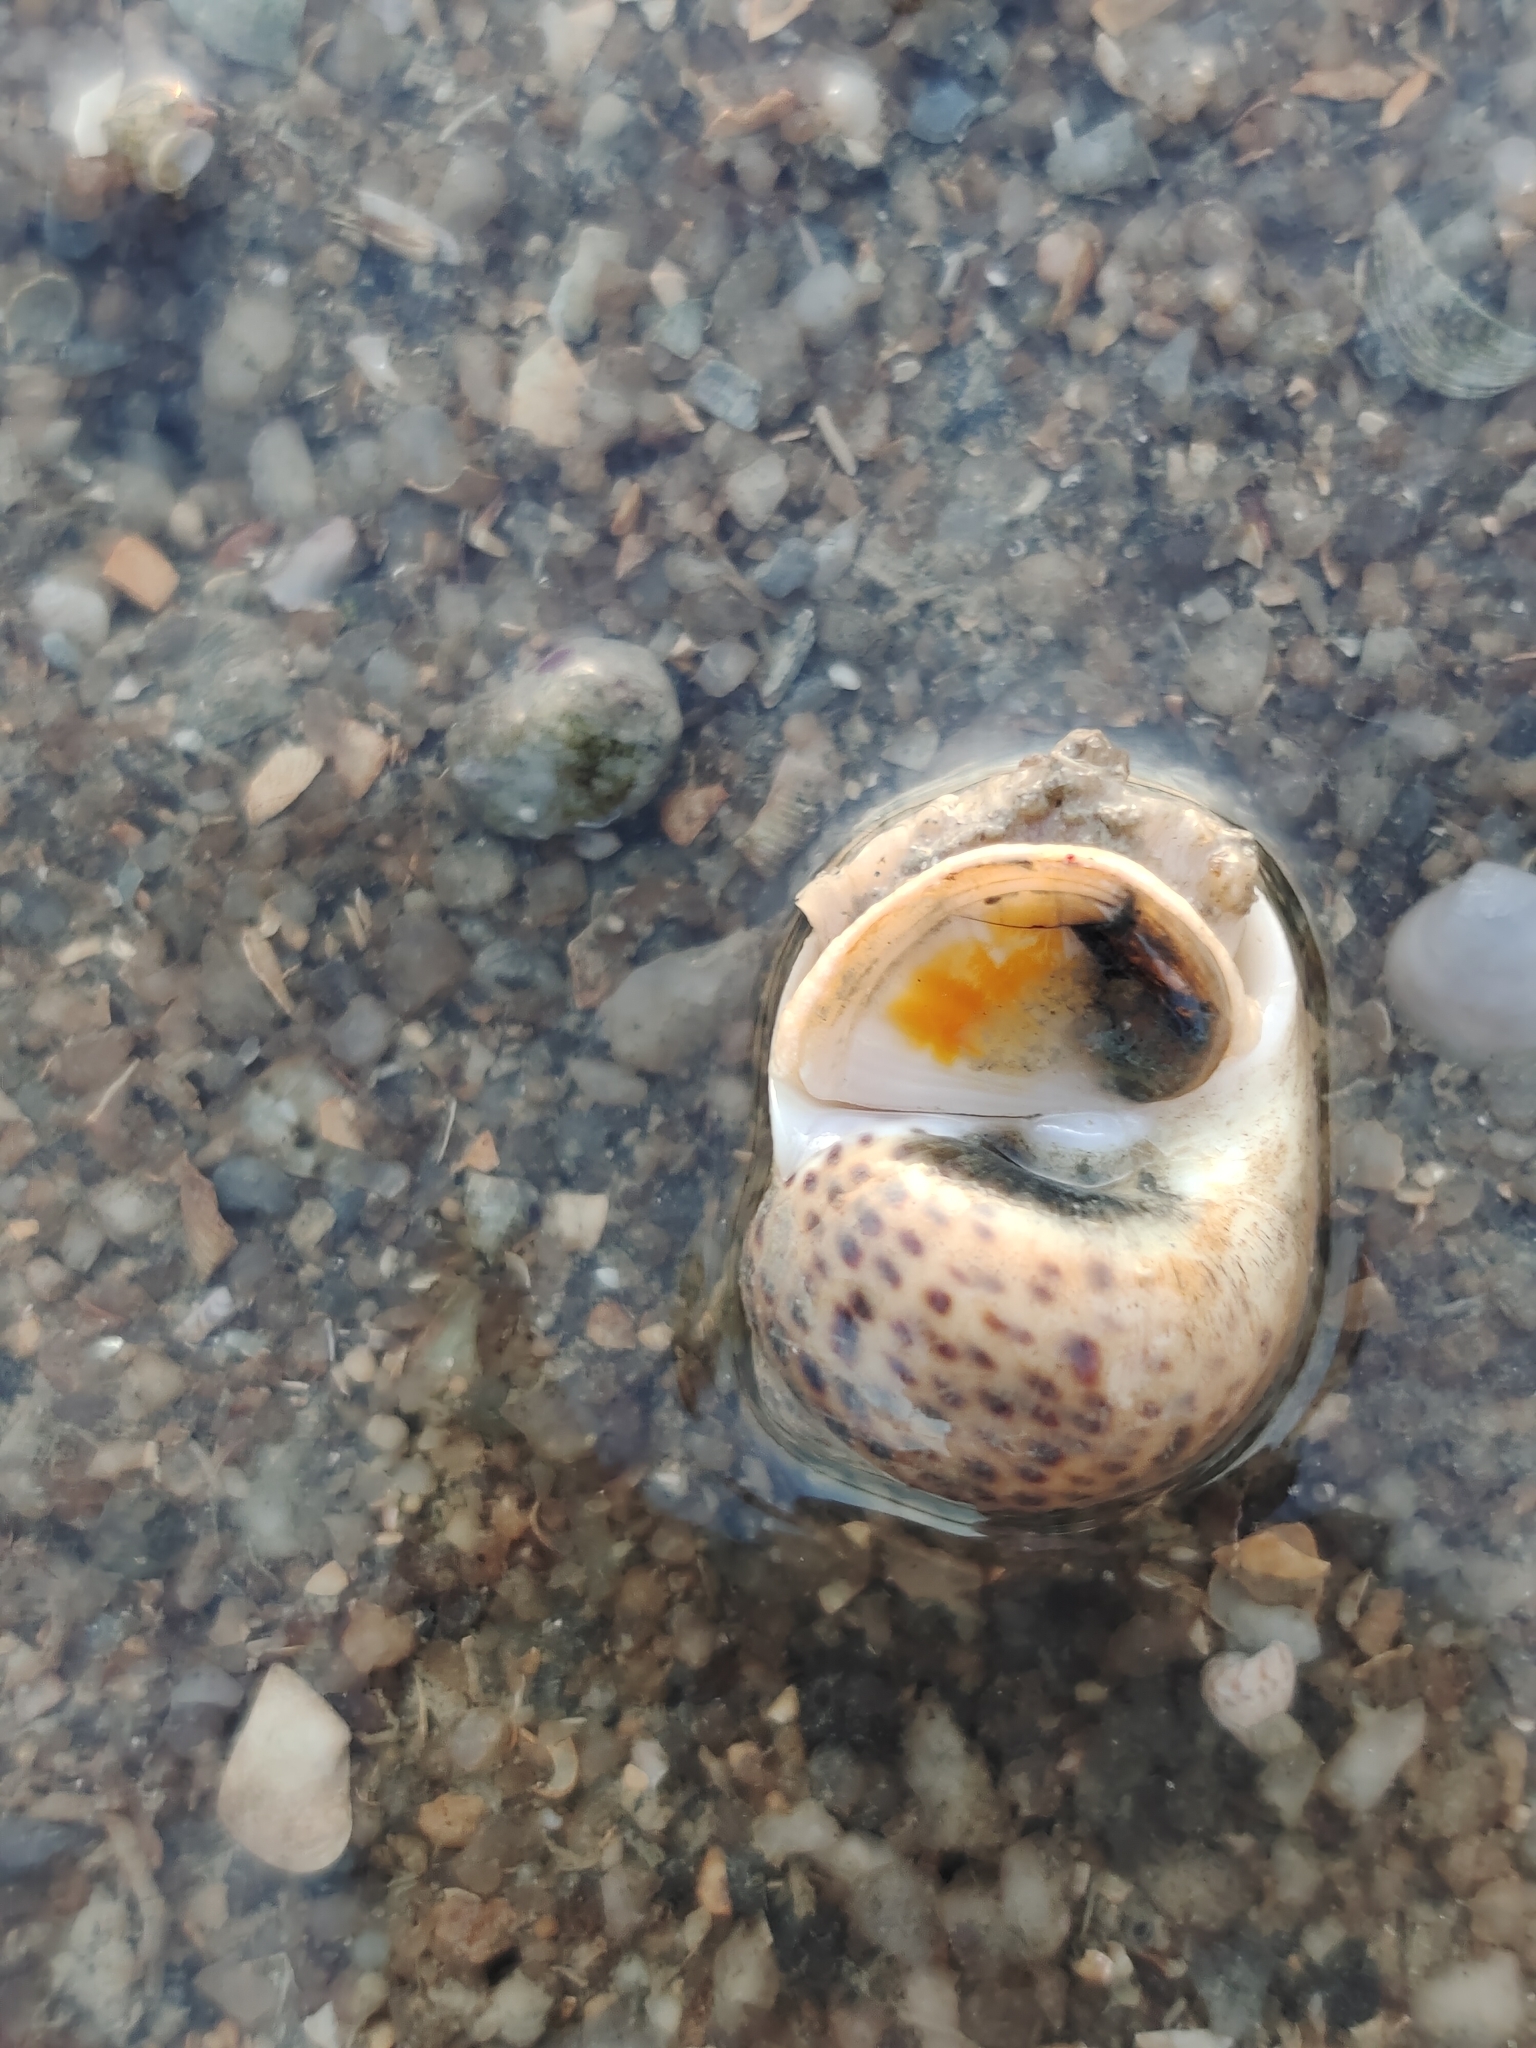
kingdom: Animalia
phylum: Mollusca
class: Gastropoda
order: Littorinimorpha
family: Naticidae
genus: Paratectonatica
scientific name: Paratectonatica tigrina
